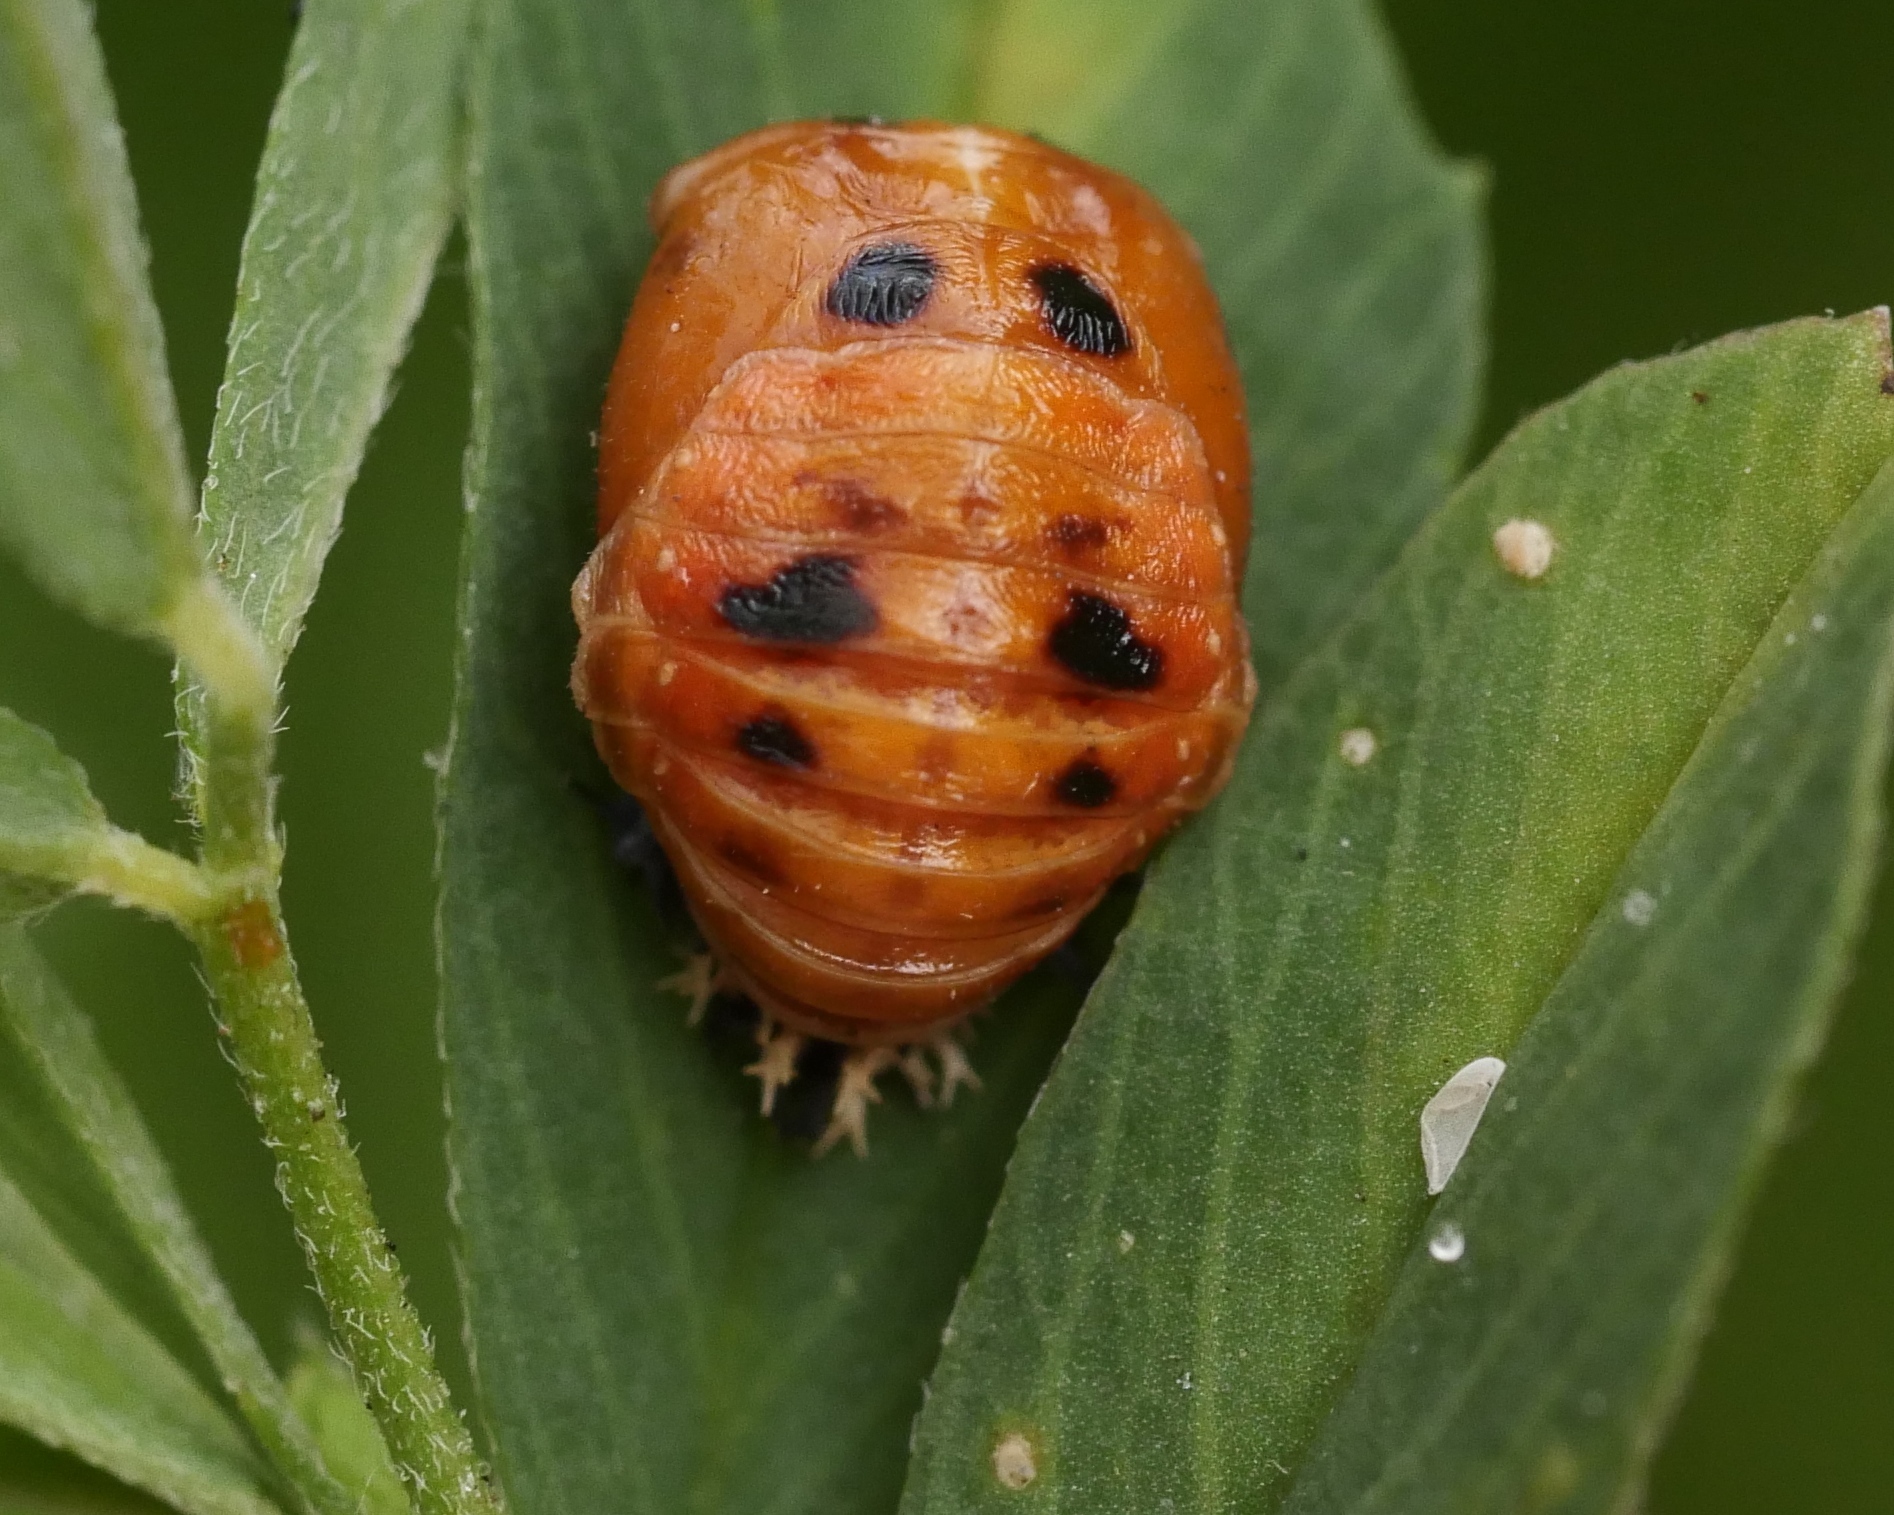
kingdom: Animalia
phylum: Arthropoda
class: Insecta
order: Coleoptera
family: Coccinellidae
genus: Harmonia
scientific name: Harmonia axyridis
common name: Harlequin ladybird
